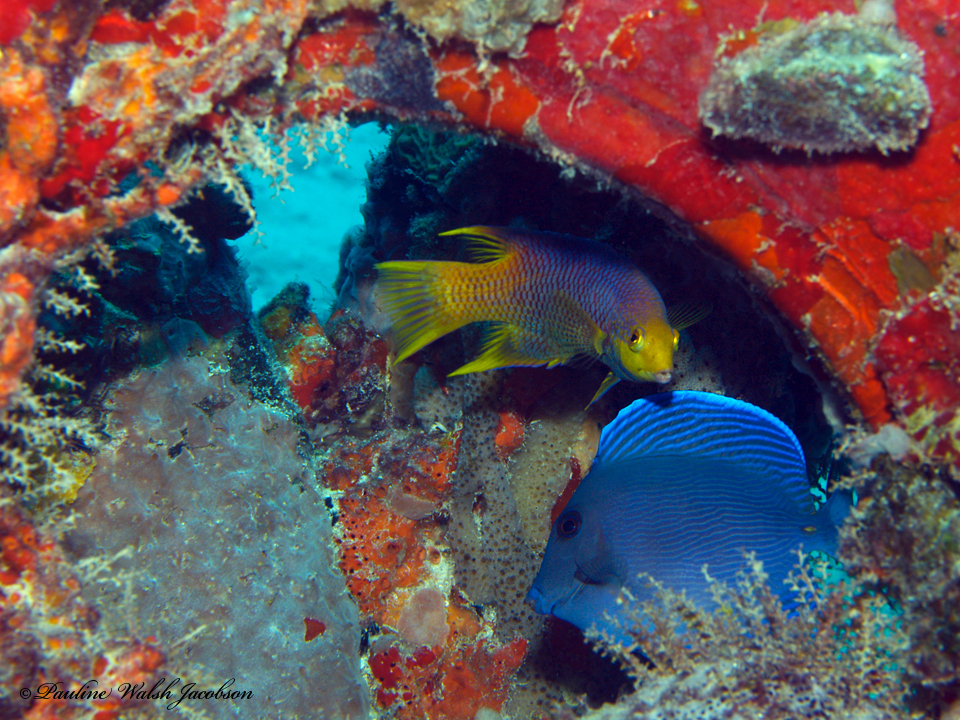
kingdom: Animalia
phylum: Chordata
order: Perciformes
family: Acanthuridae
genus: Acanthurus
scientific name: Acanthurus coeruleus
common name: Blue tang
